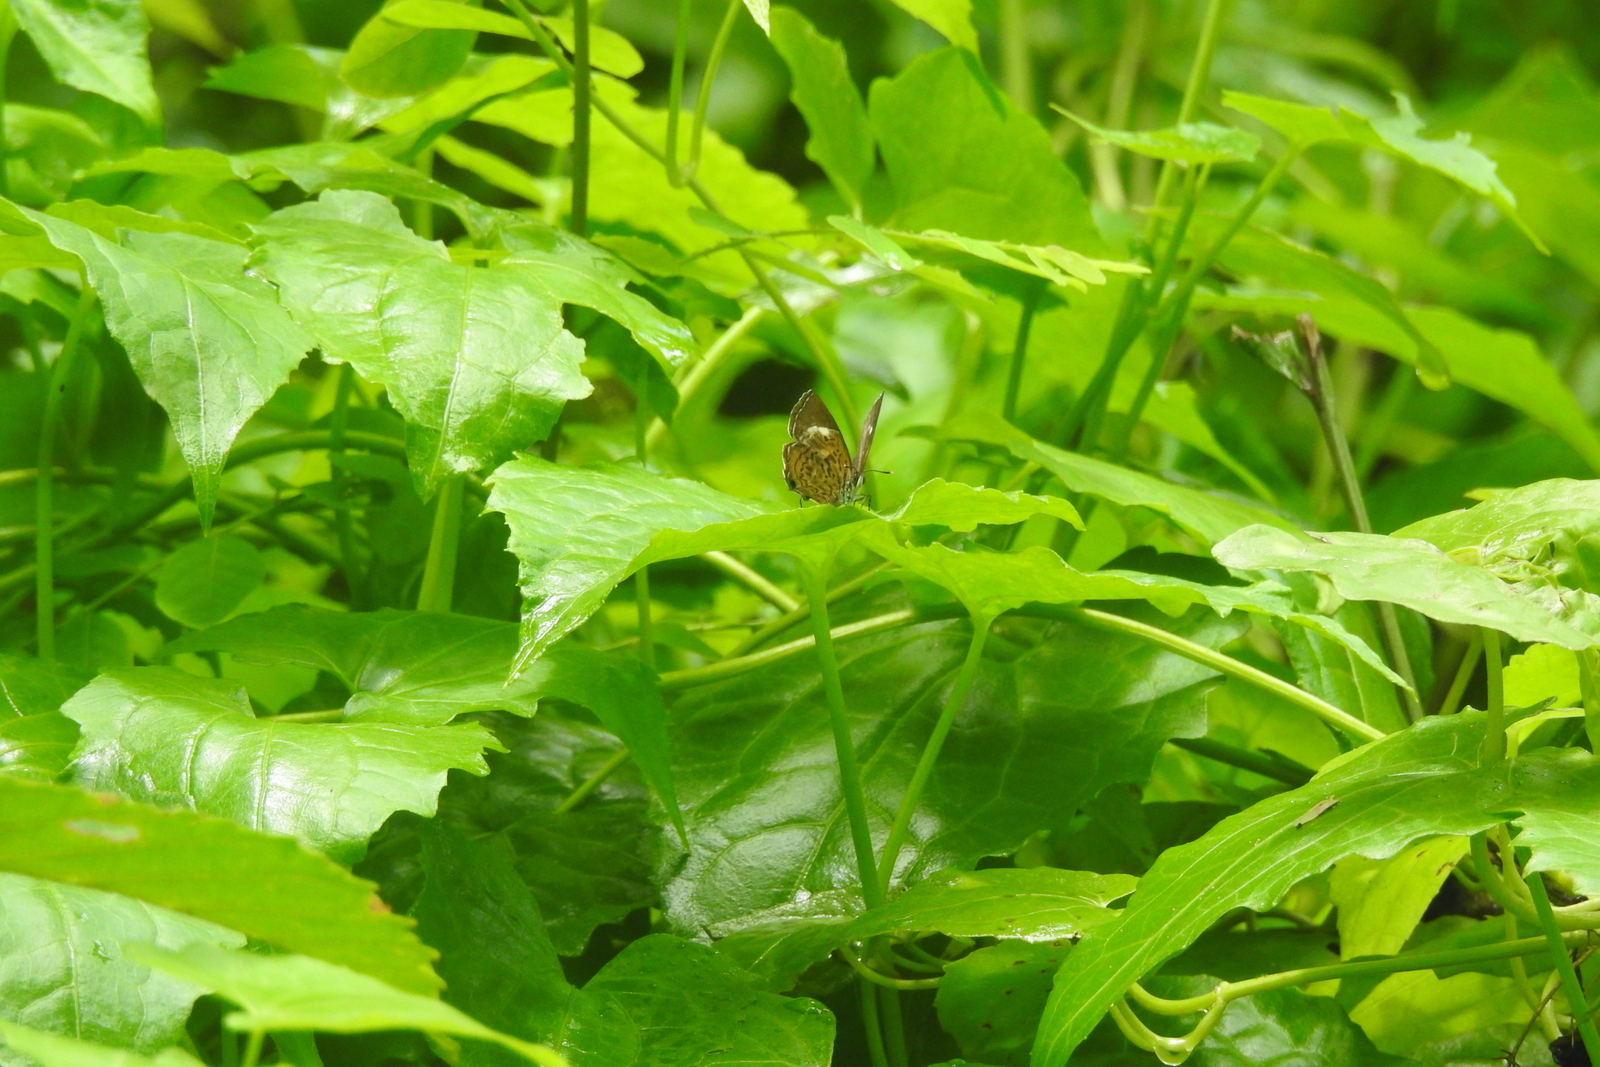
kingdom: Animalia
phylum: Arthropoda
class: Insecta
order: Lepidoptera
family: Lycaenidae
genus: Rathinda
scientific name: Rathinda amor
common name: Monkey puzzle
